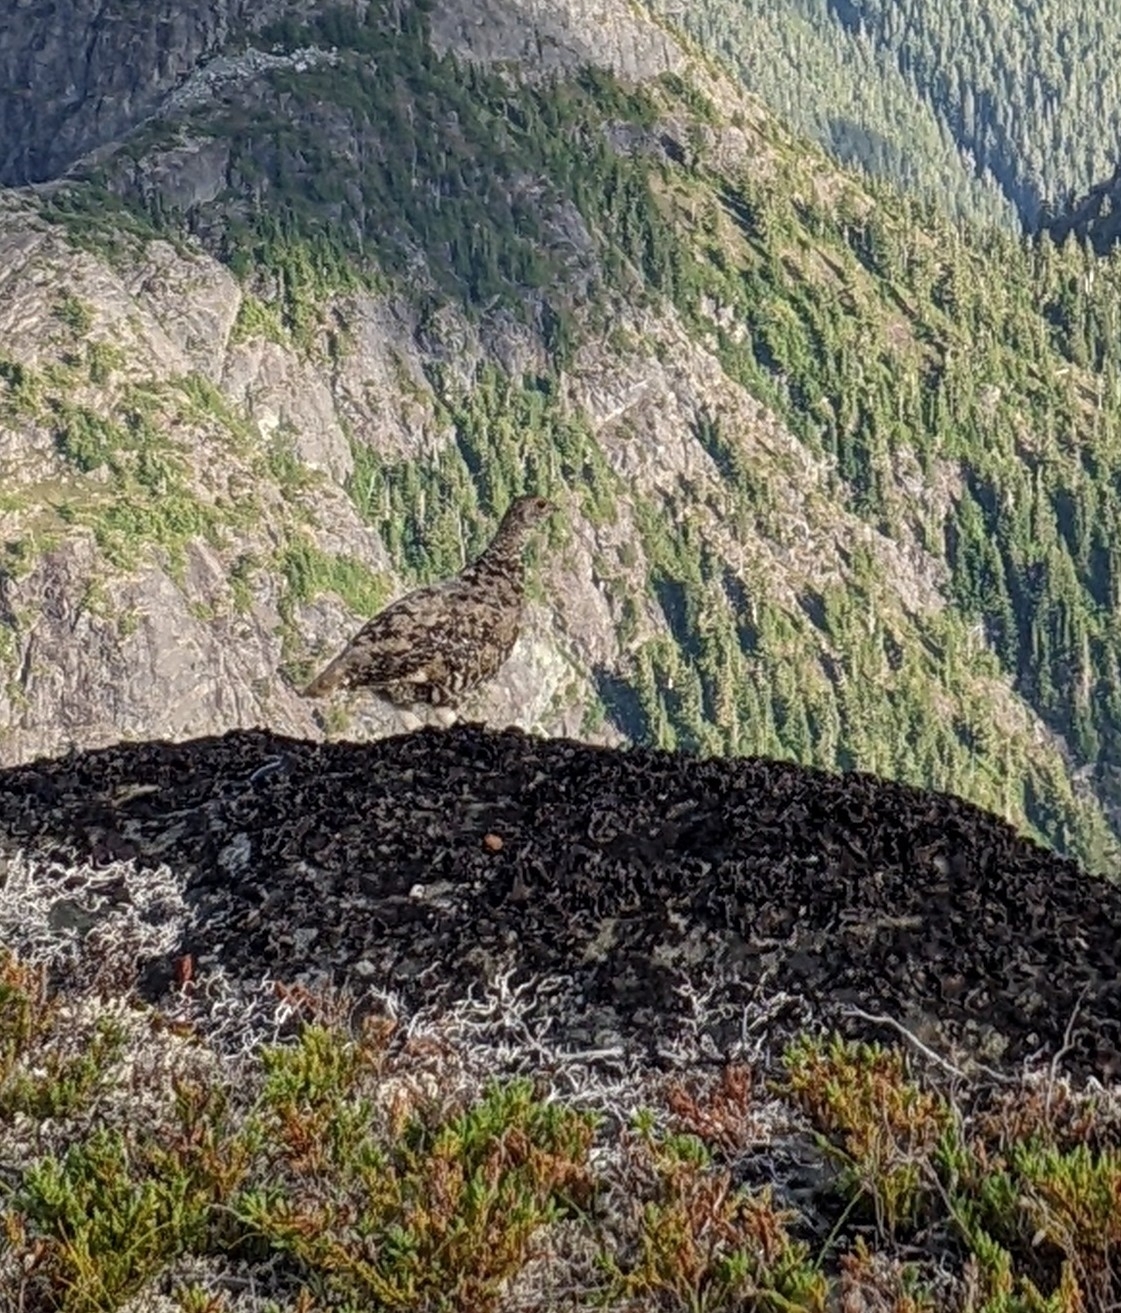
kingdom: Animalia
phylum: Chordata
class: Aves
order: Galliformes
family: Phasianidae
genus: Lagopus
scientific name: Lagopus leucura
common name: White-tailed ptarmigan
